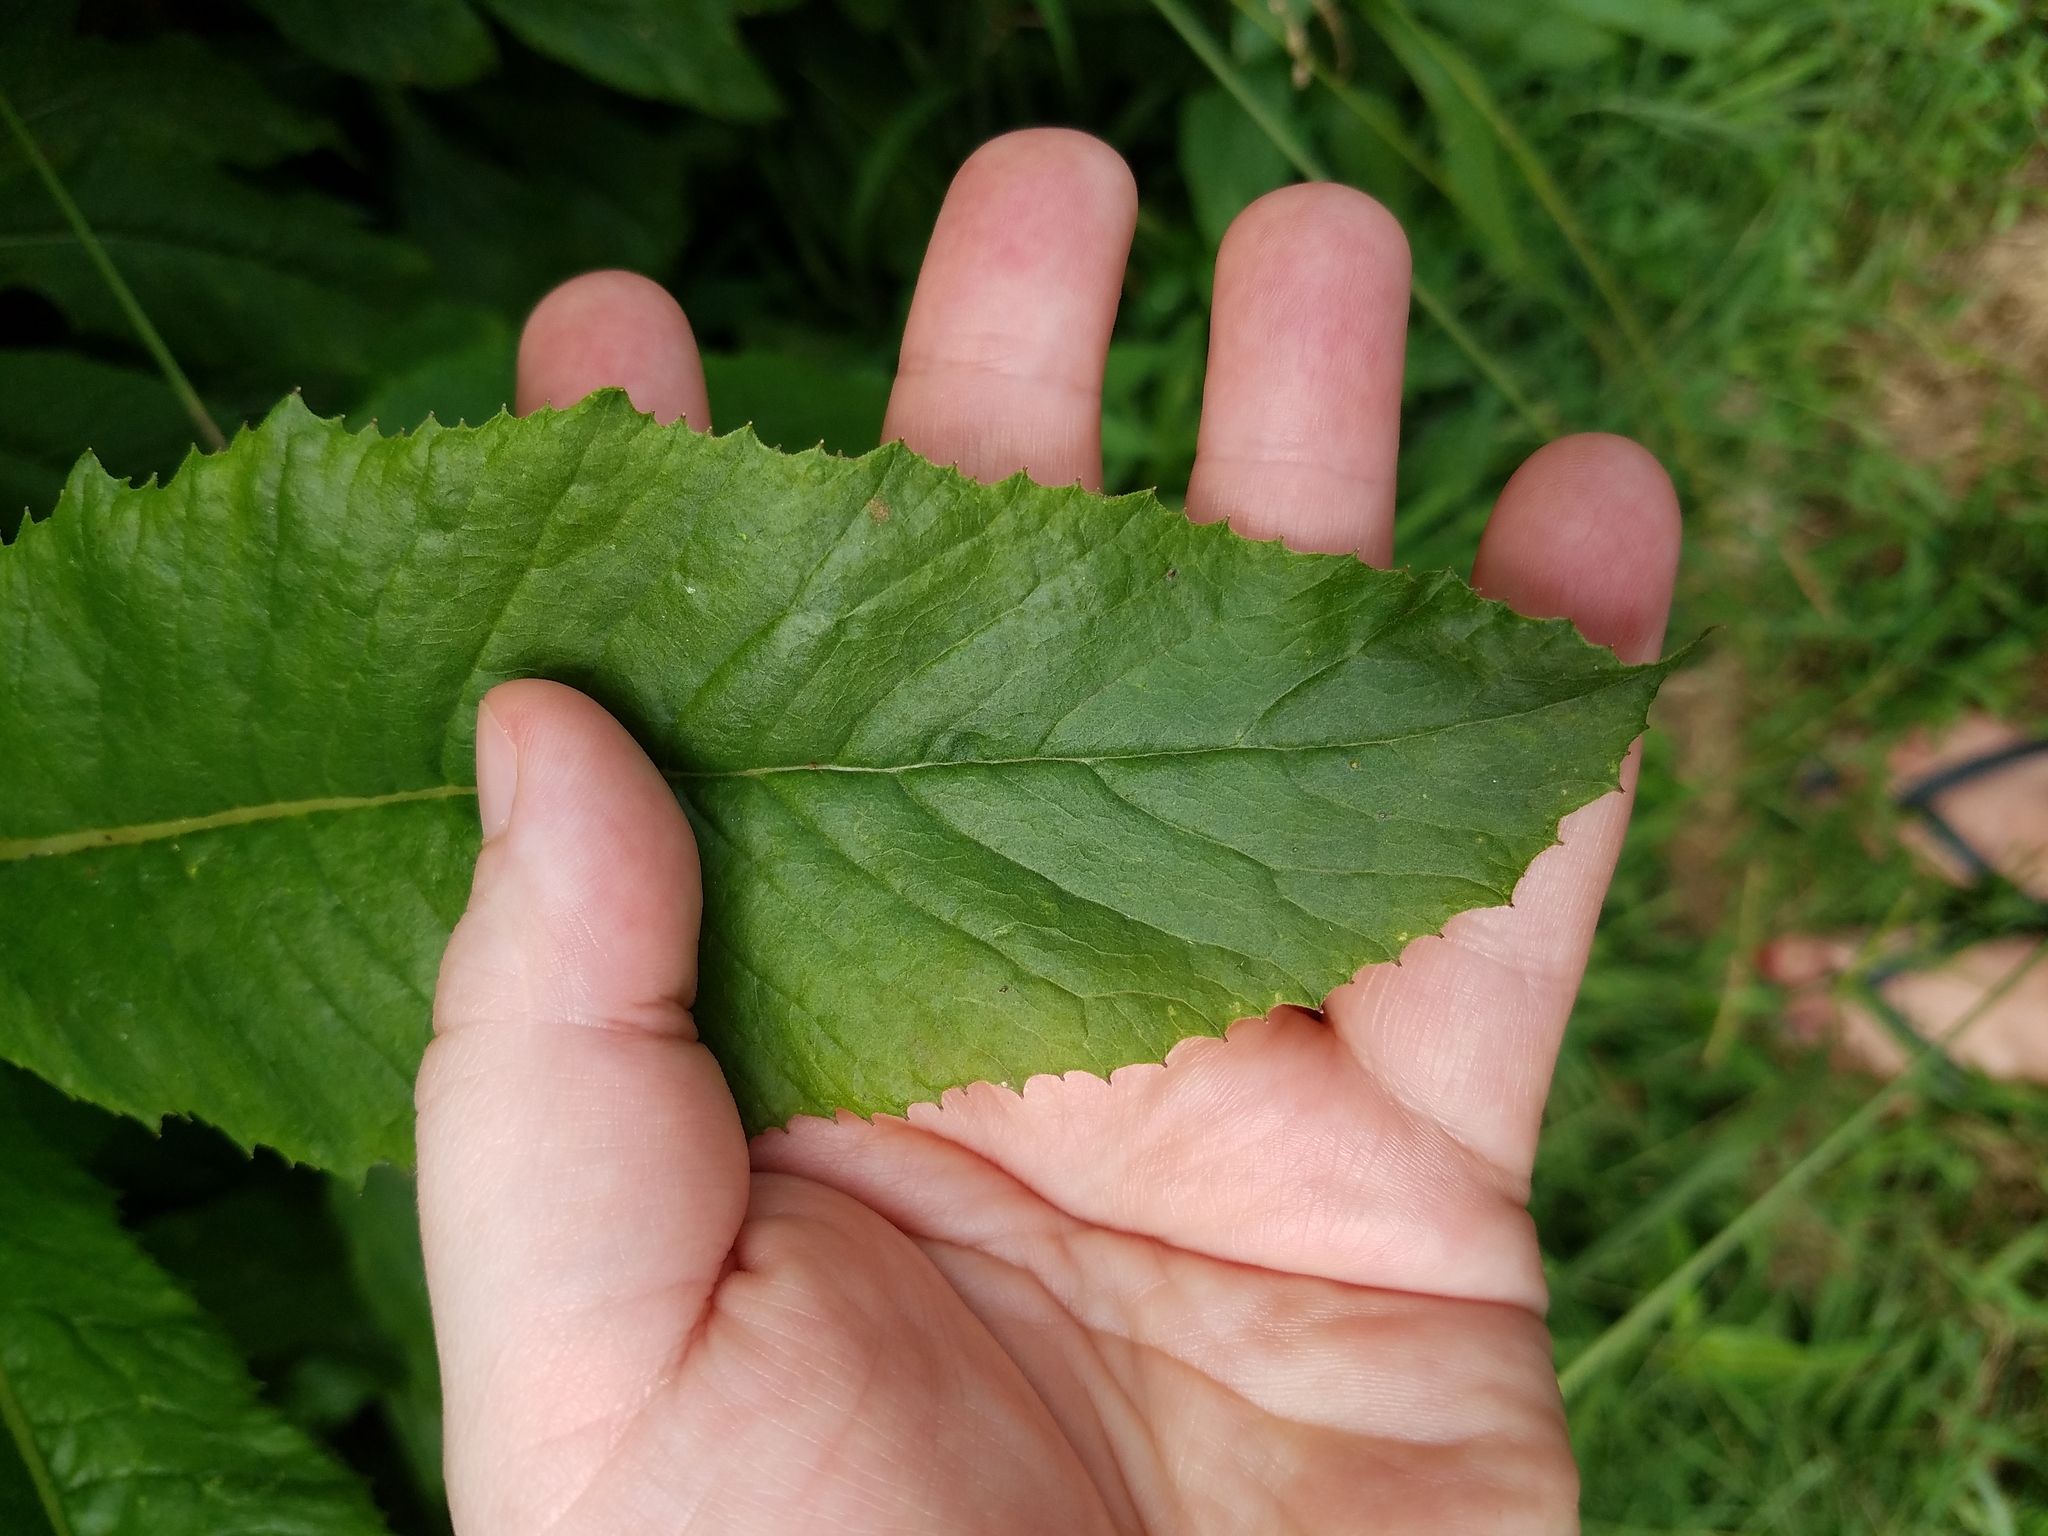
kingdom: Plantae
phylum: Tracheophyta
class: Magnoliopsida
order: Asterales
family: Asteraceae
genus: Erechtites
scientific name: Erechtites hieraciifolius
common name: American burnweed
